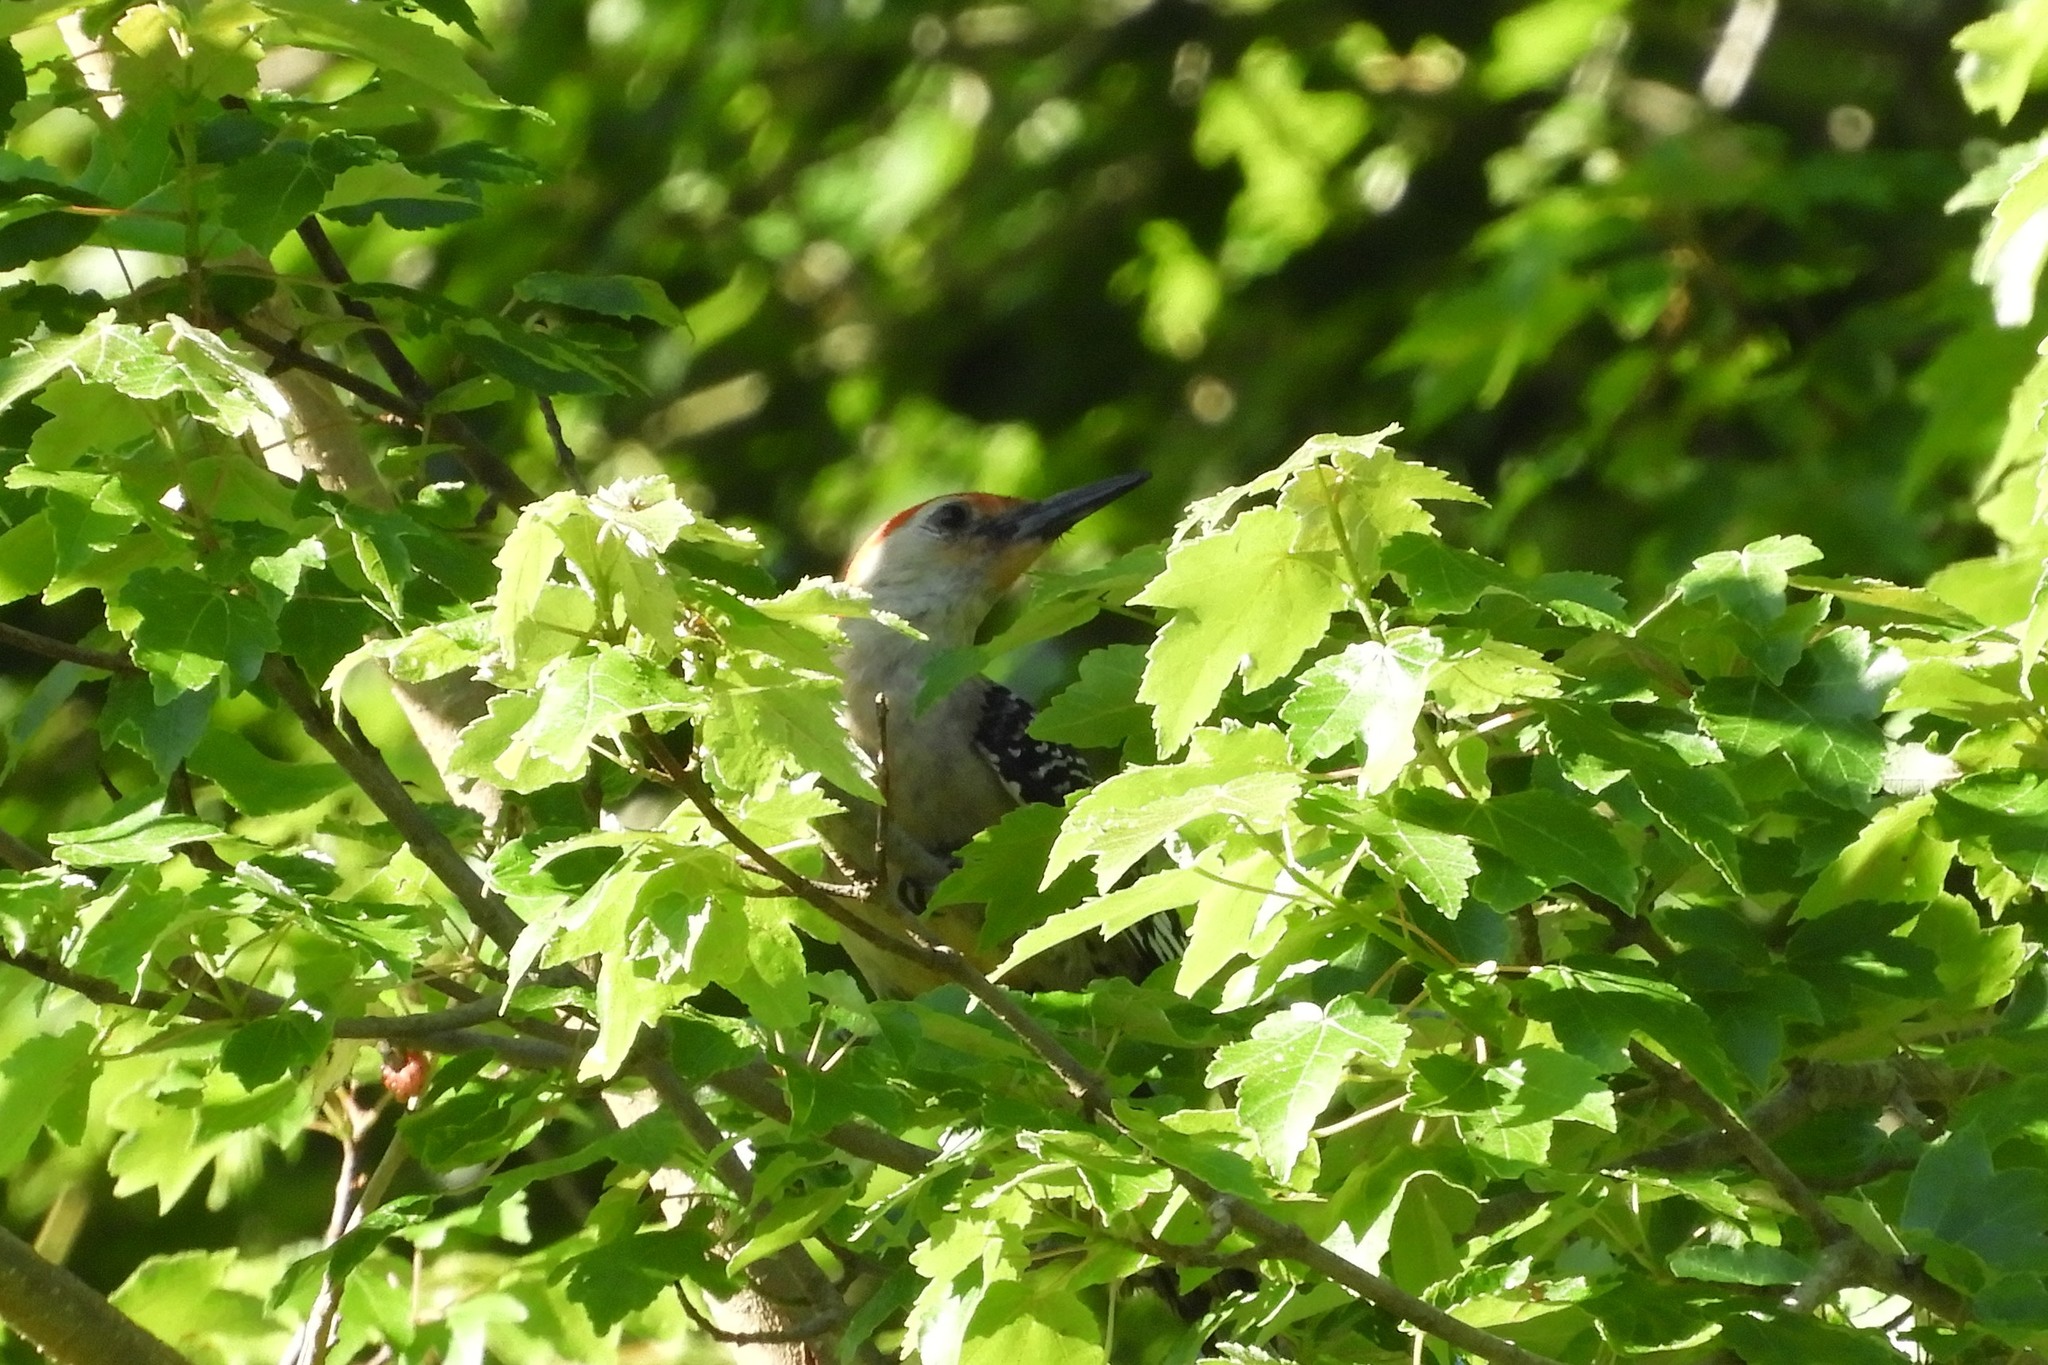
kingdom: Animalia
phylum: Chordata
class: Aves
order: Piciformes
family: Picidae
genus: Melanerpes
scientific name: Melanerpes carolinus
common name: Red-bellied woodpecker
